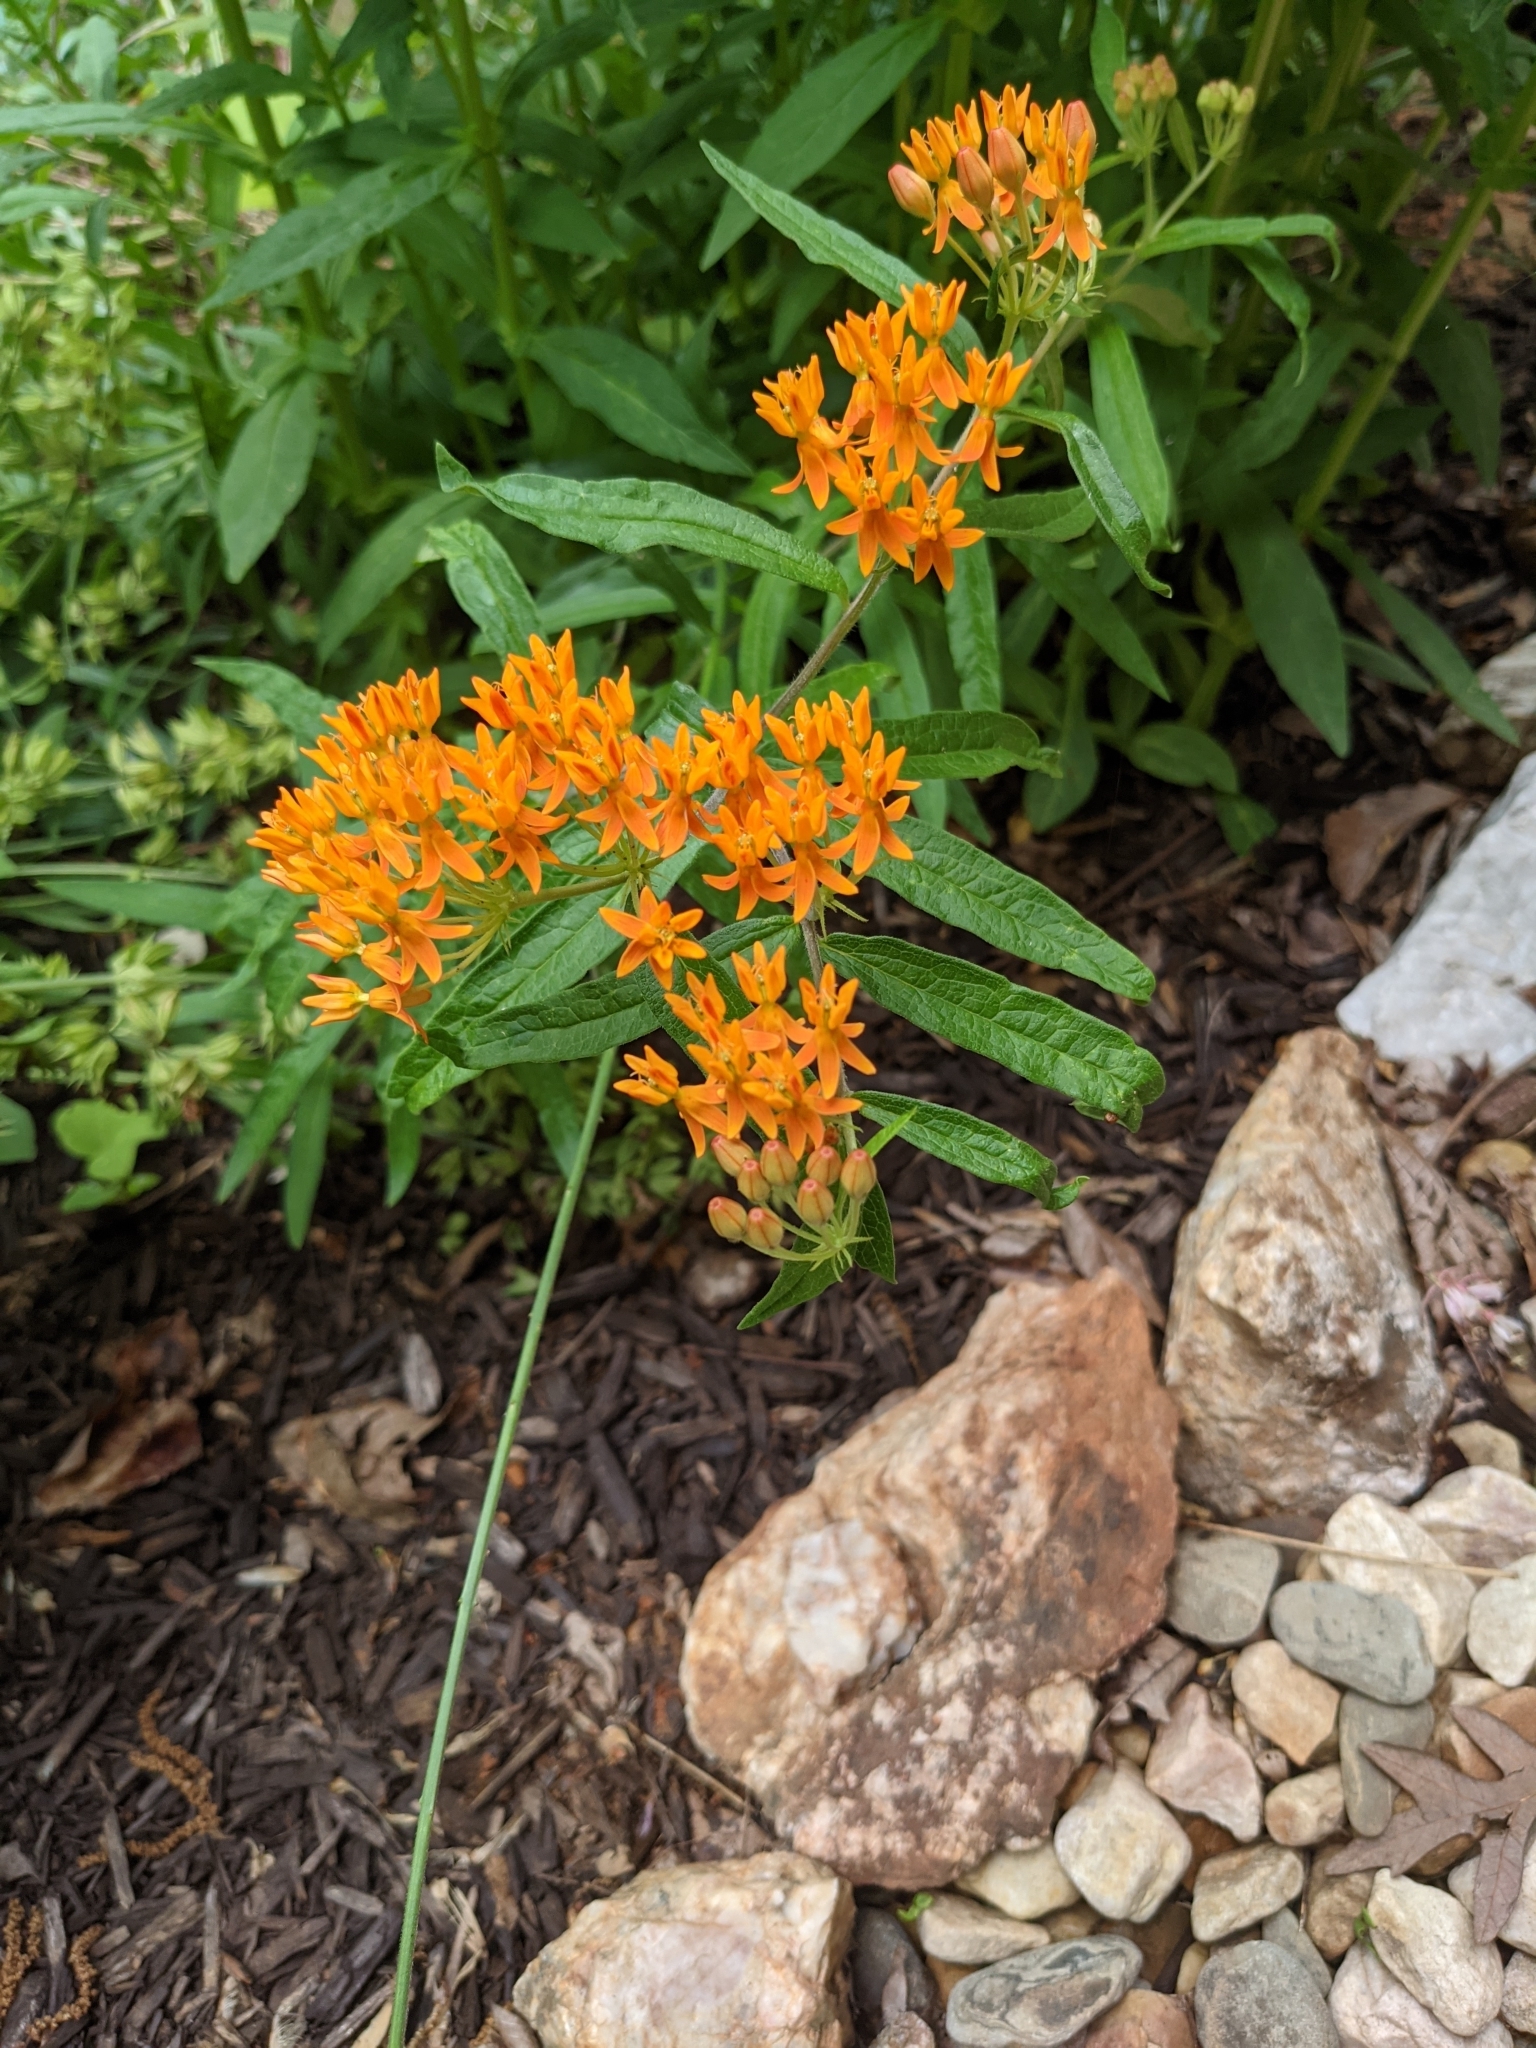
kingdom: Plantae
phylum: Tracheophyta
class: Magnoliopsida
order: Gentianales
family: Apocynaceae
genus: Asclepias
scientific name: Asclepias tuberosa
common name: Butterfly milkweed
